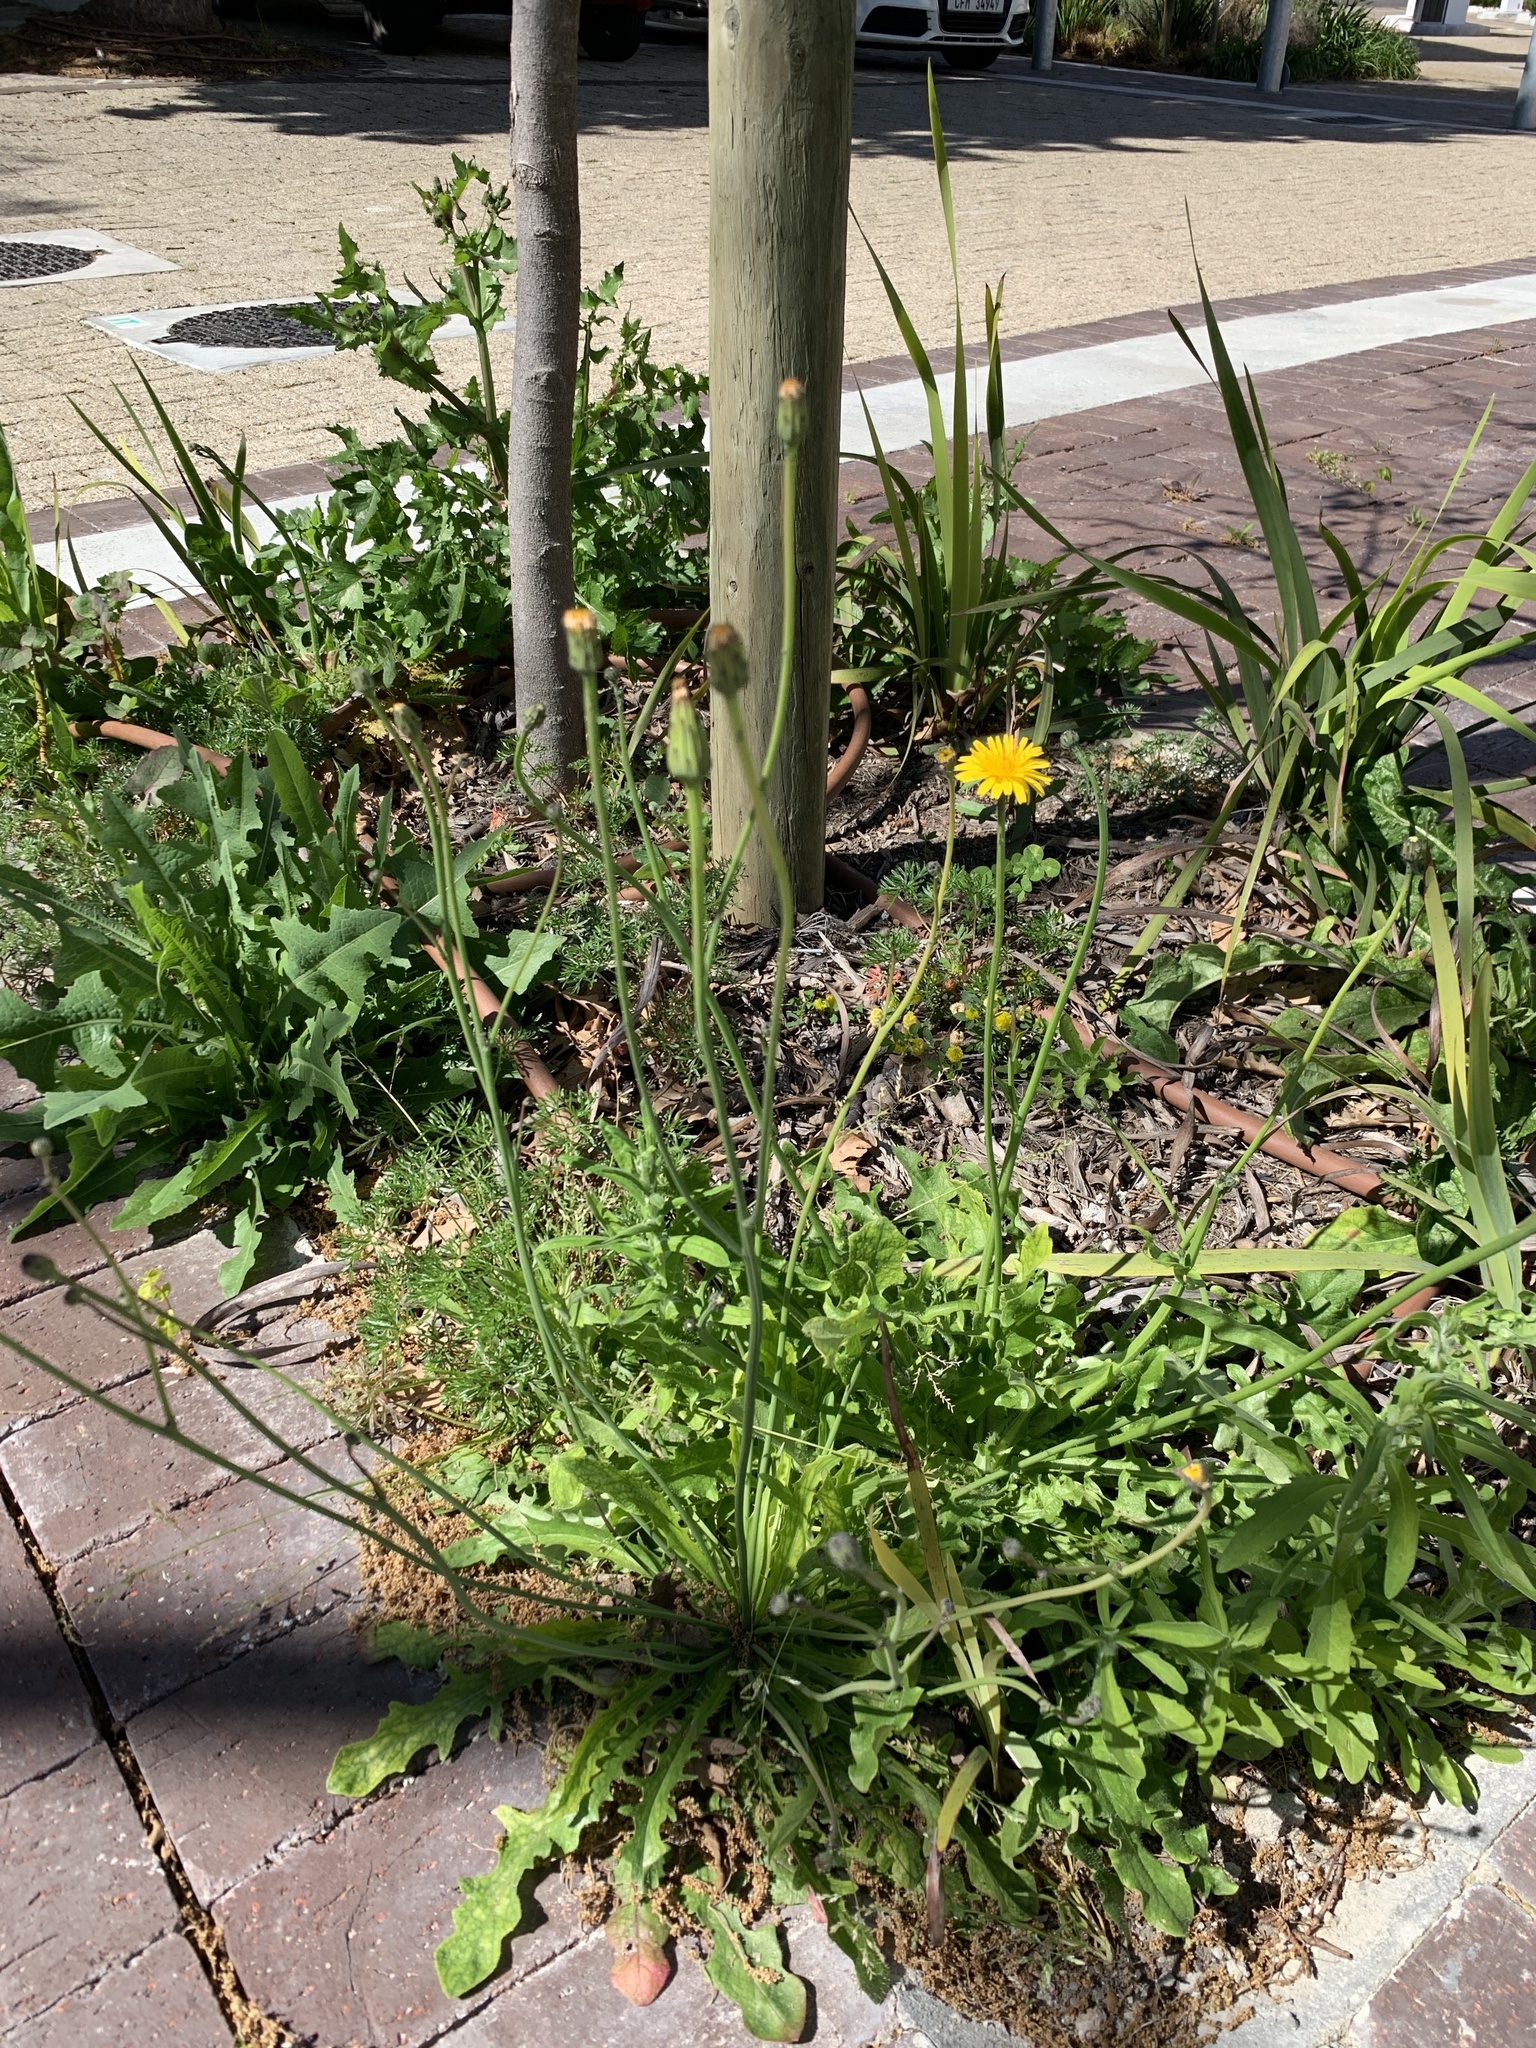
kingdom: Plantae
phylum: Tracheophyta
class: Magnoliopsida
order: Asterales
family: Asteraceae
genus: Hypochaeris
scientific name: Hypochaeris radicata
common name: Flatweed
